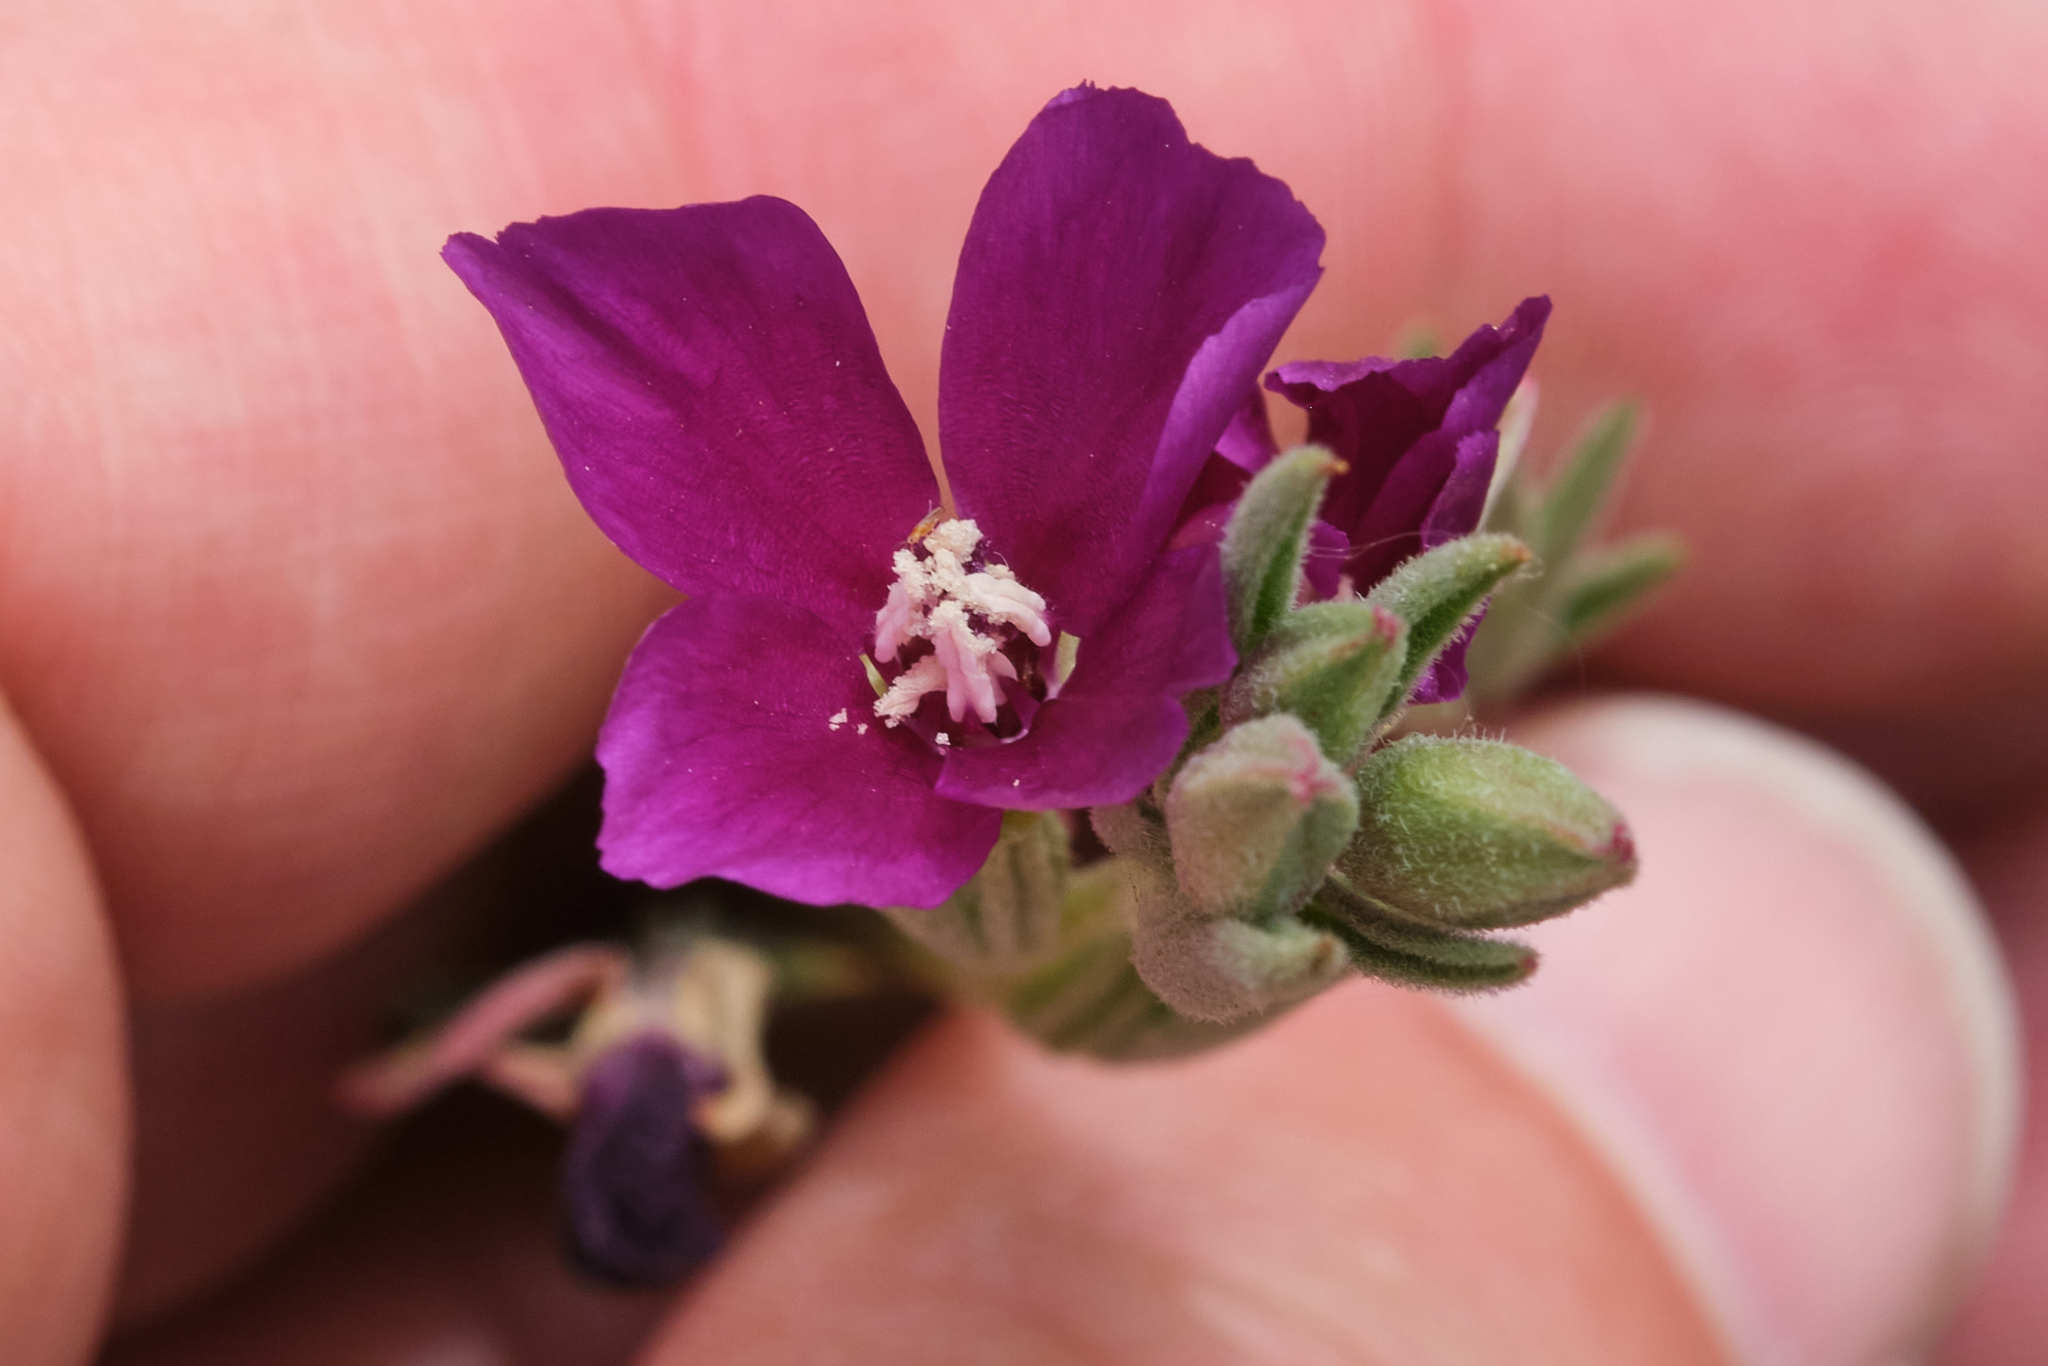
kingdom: Plantae
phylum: Tracheophyta
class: Magnoliopsida
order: Myrtales
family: Onagraceae
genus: Clarkia
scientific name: Clarkia purpurea
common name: Purple clarkia
